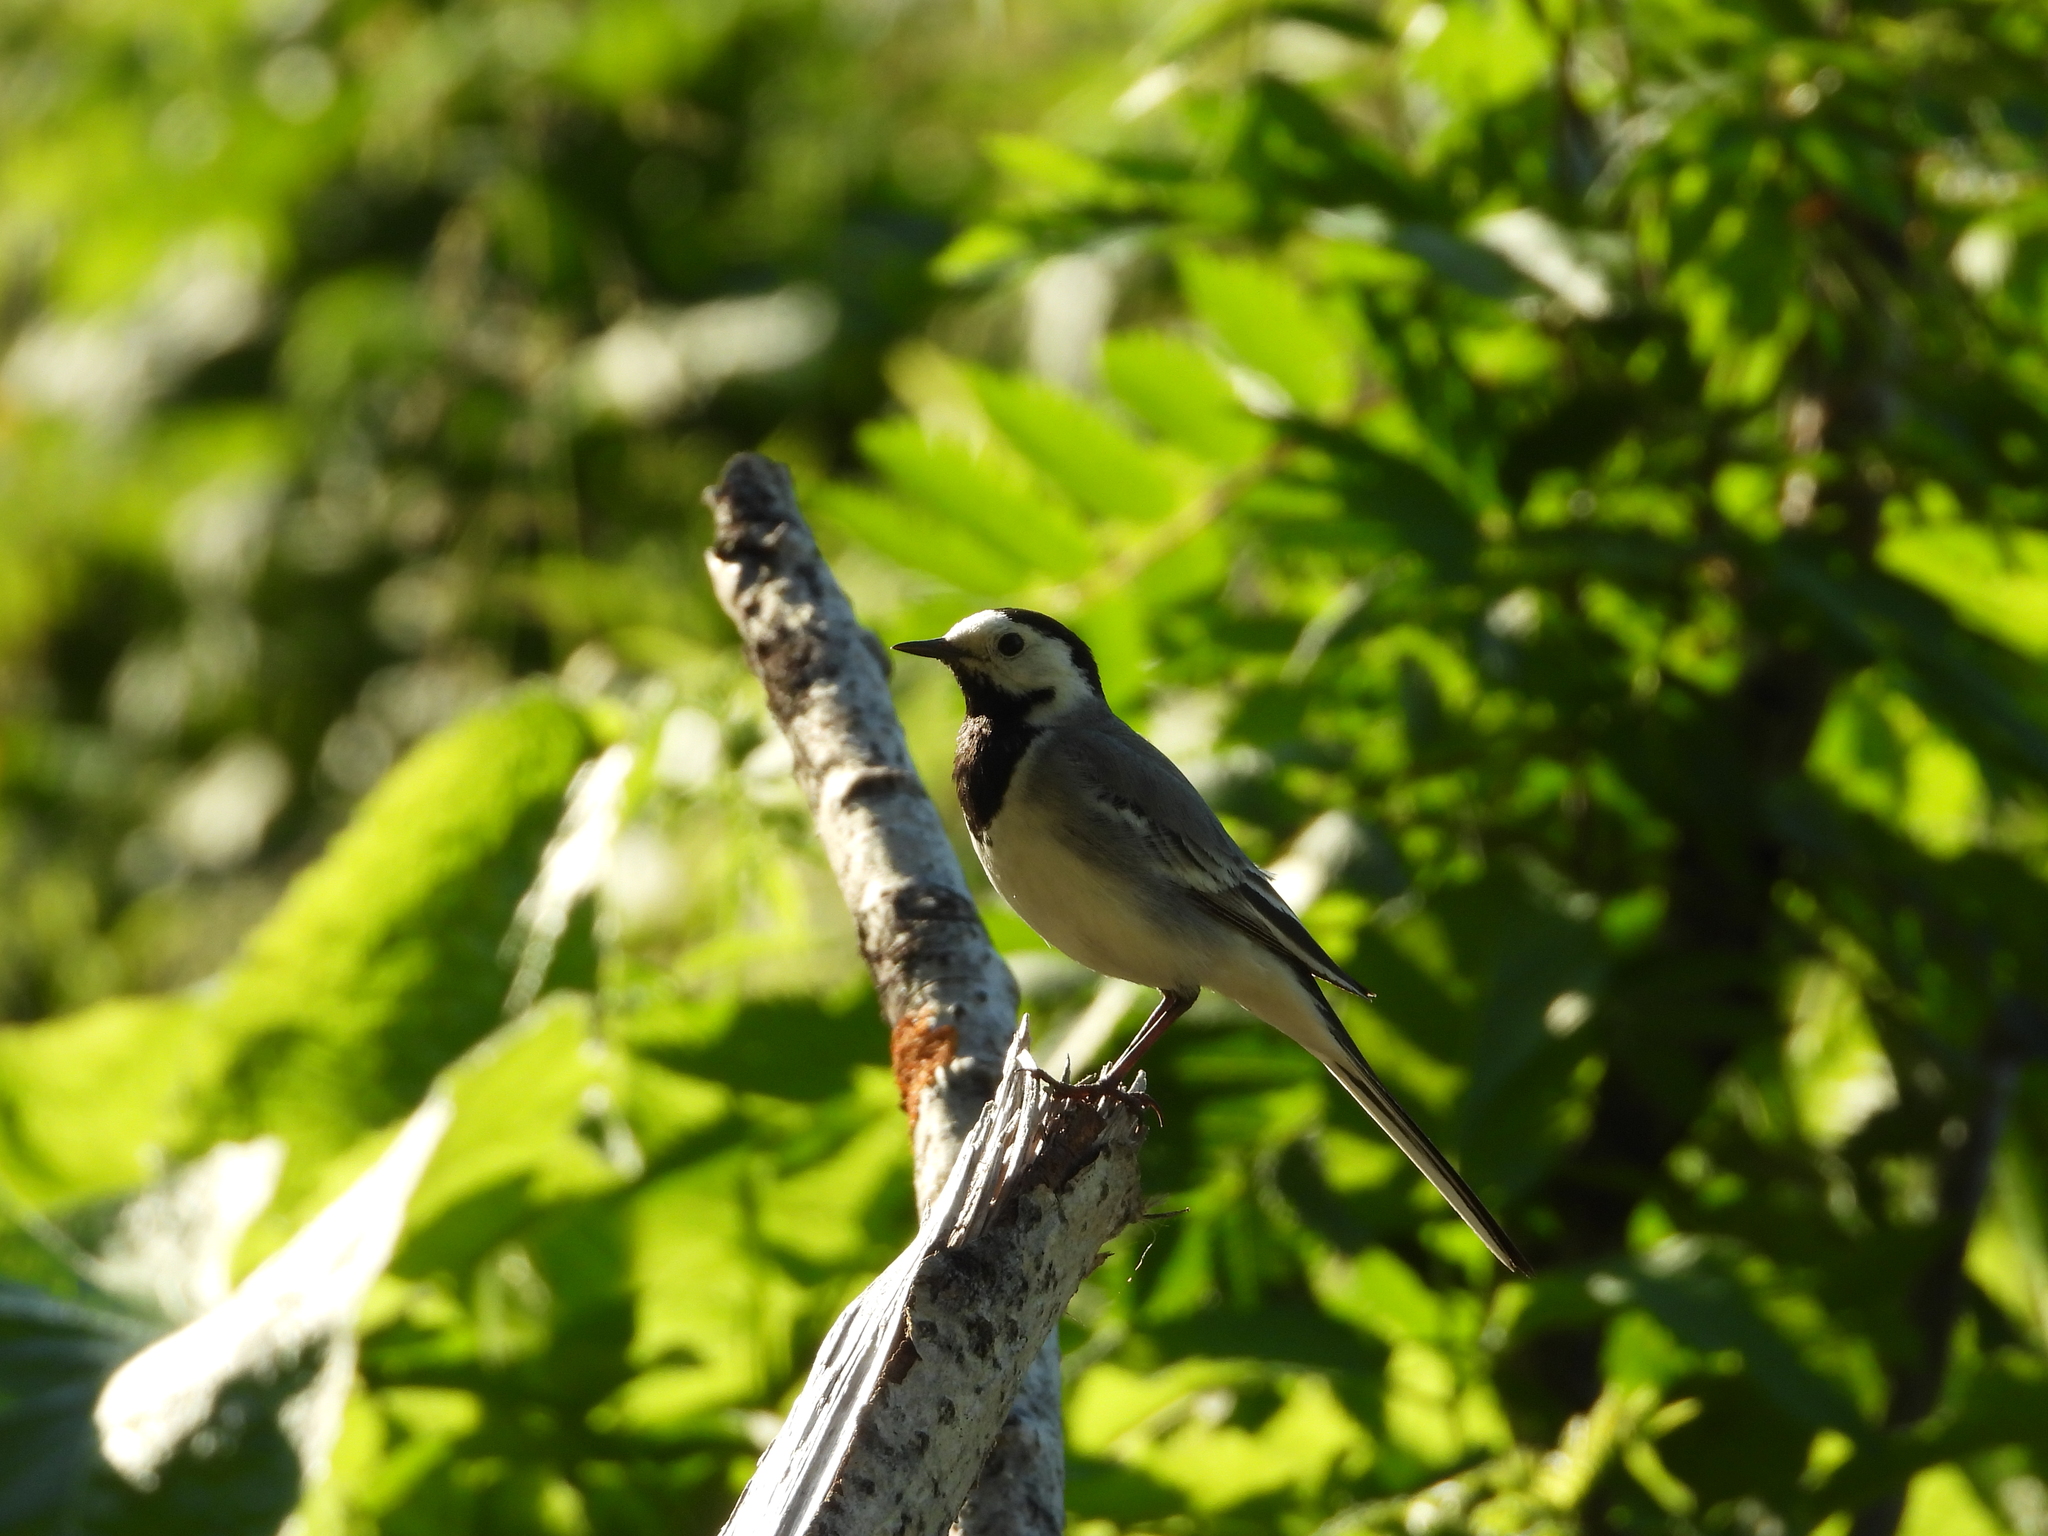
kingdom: Animalia
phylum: Chordata
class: Aves
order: Passeriformes
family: Motacillidae
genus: Motacilla
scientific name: Motacilla alba
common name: White wagtail
